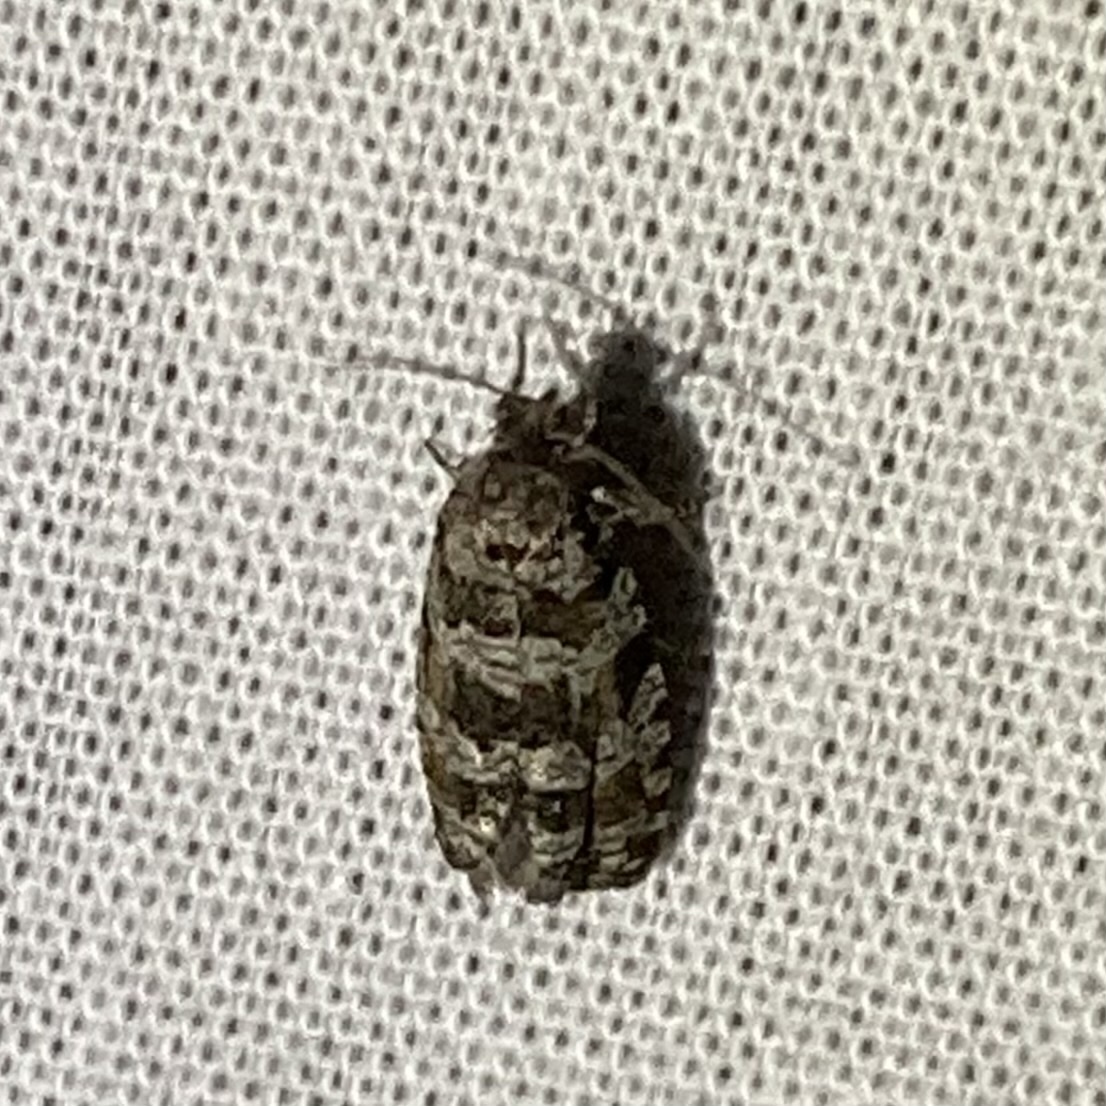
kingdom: Animalia
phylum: Arthropoda
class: Insecta
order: Lepidoptera
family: Tortricidae
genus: Archips
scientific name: Archips packardiana
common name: Spring spruce needle moth
